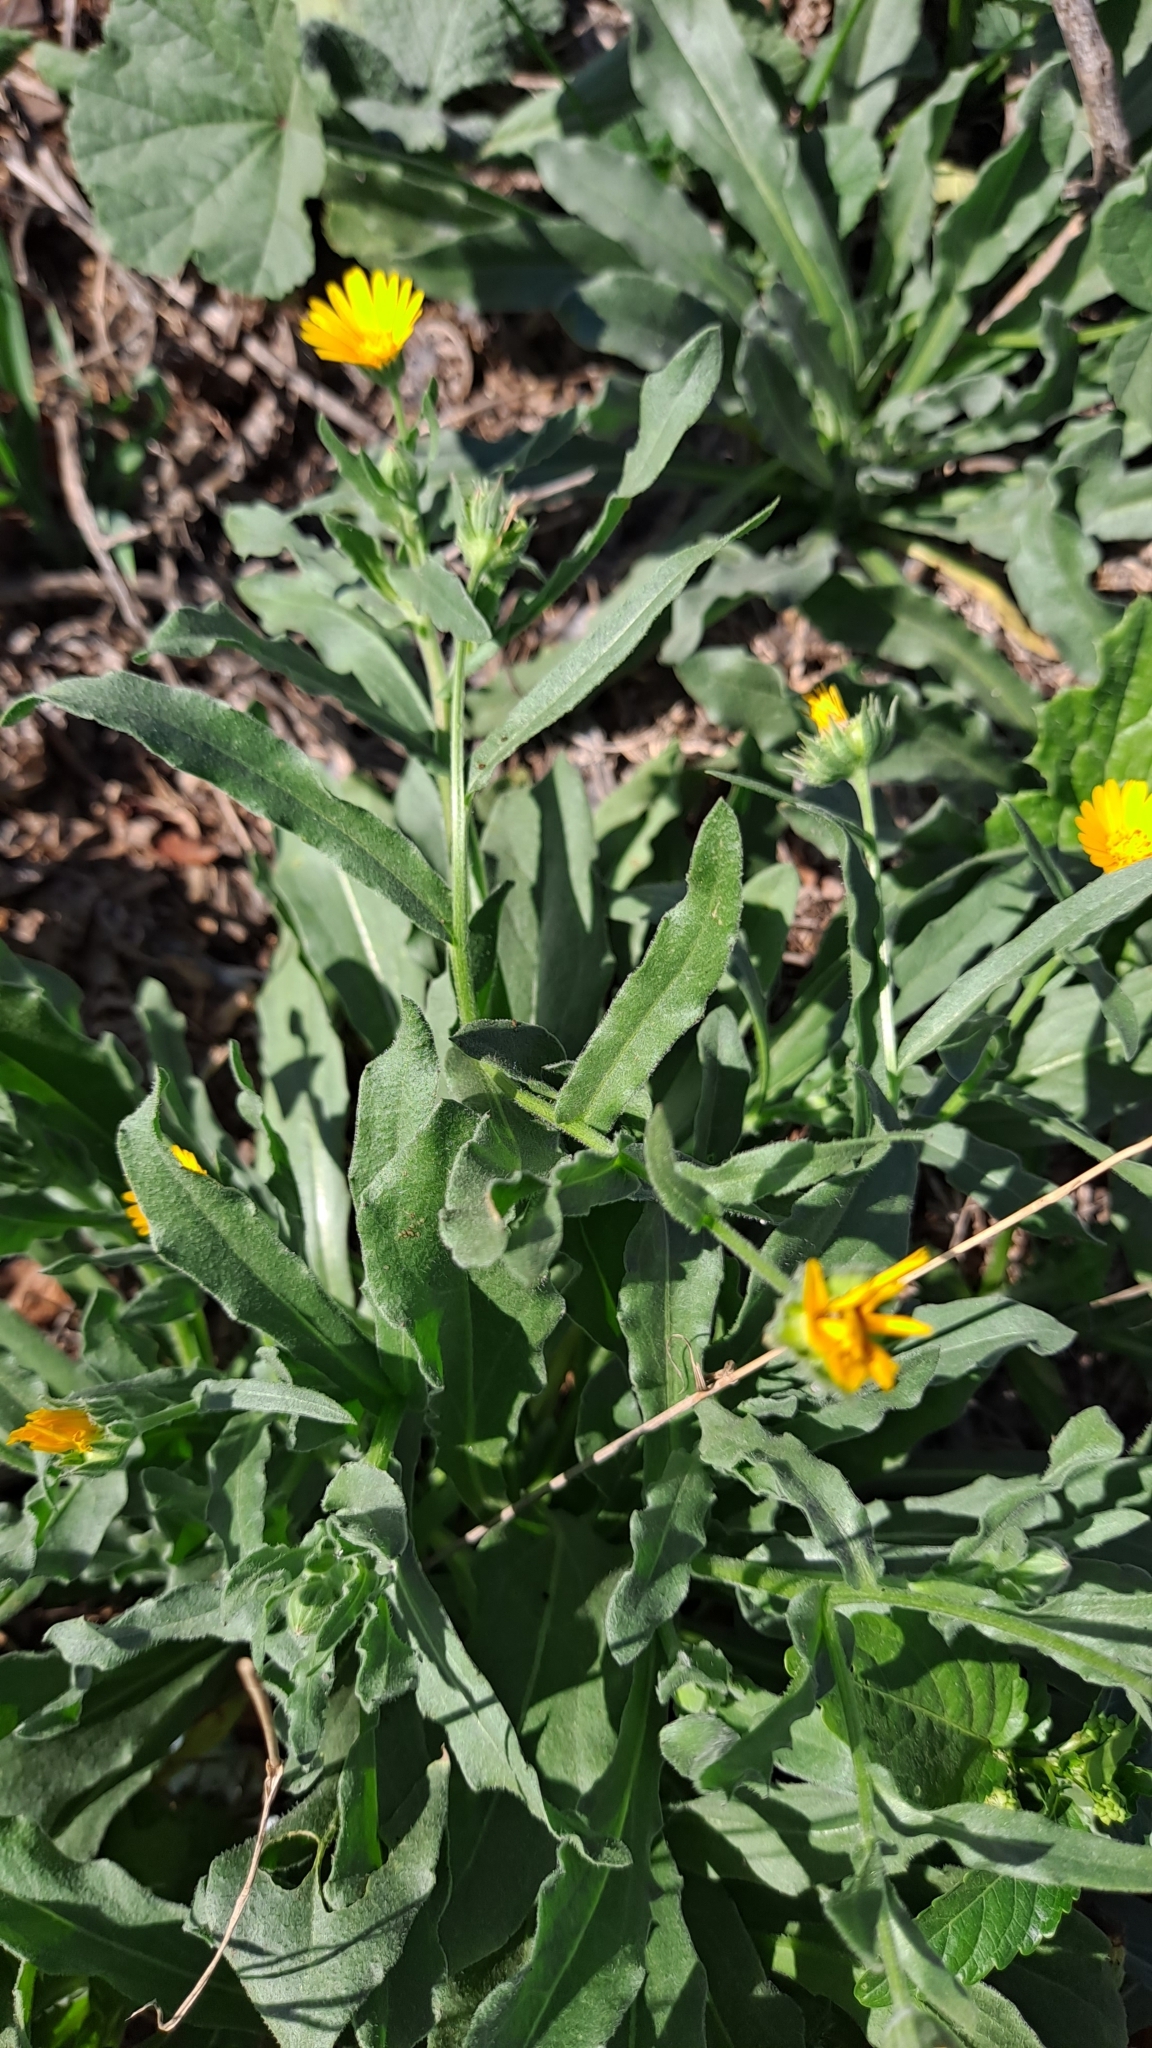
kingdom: Plantae
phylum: Tracheophyta
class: Magnoliopsida
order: Asterales
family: Asteraceae
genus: Calendula
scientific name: Calendula arvensis
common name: Field marigold
